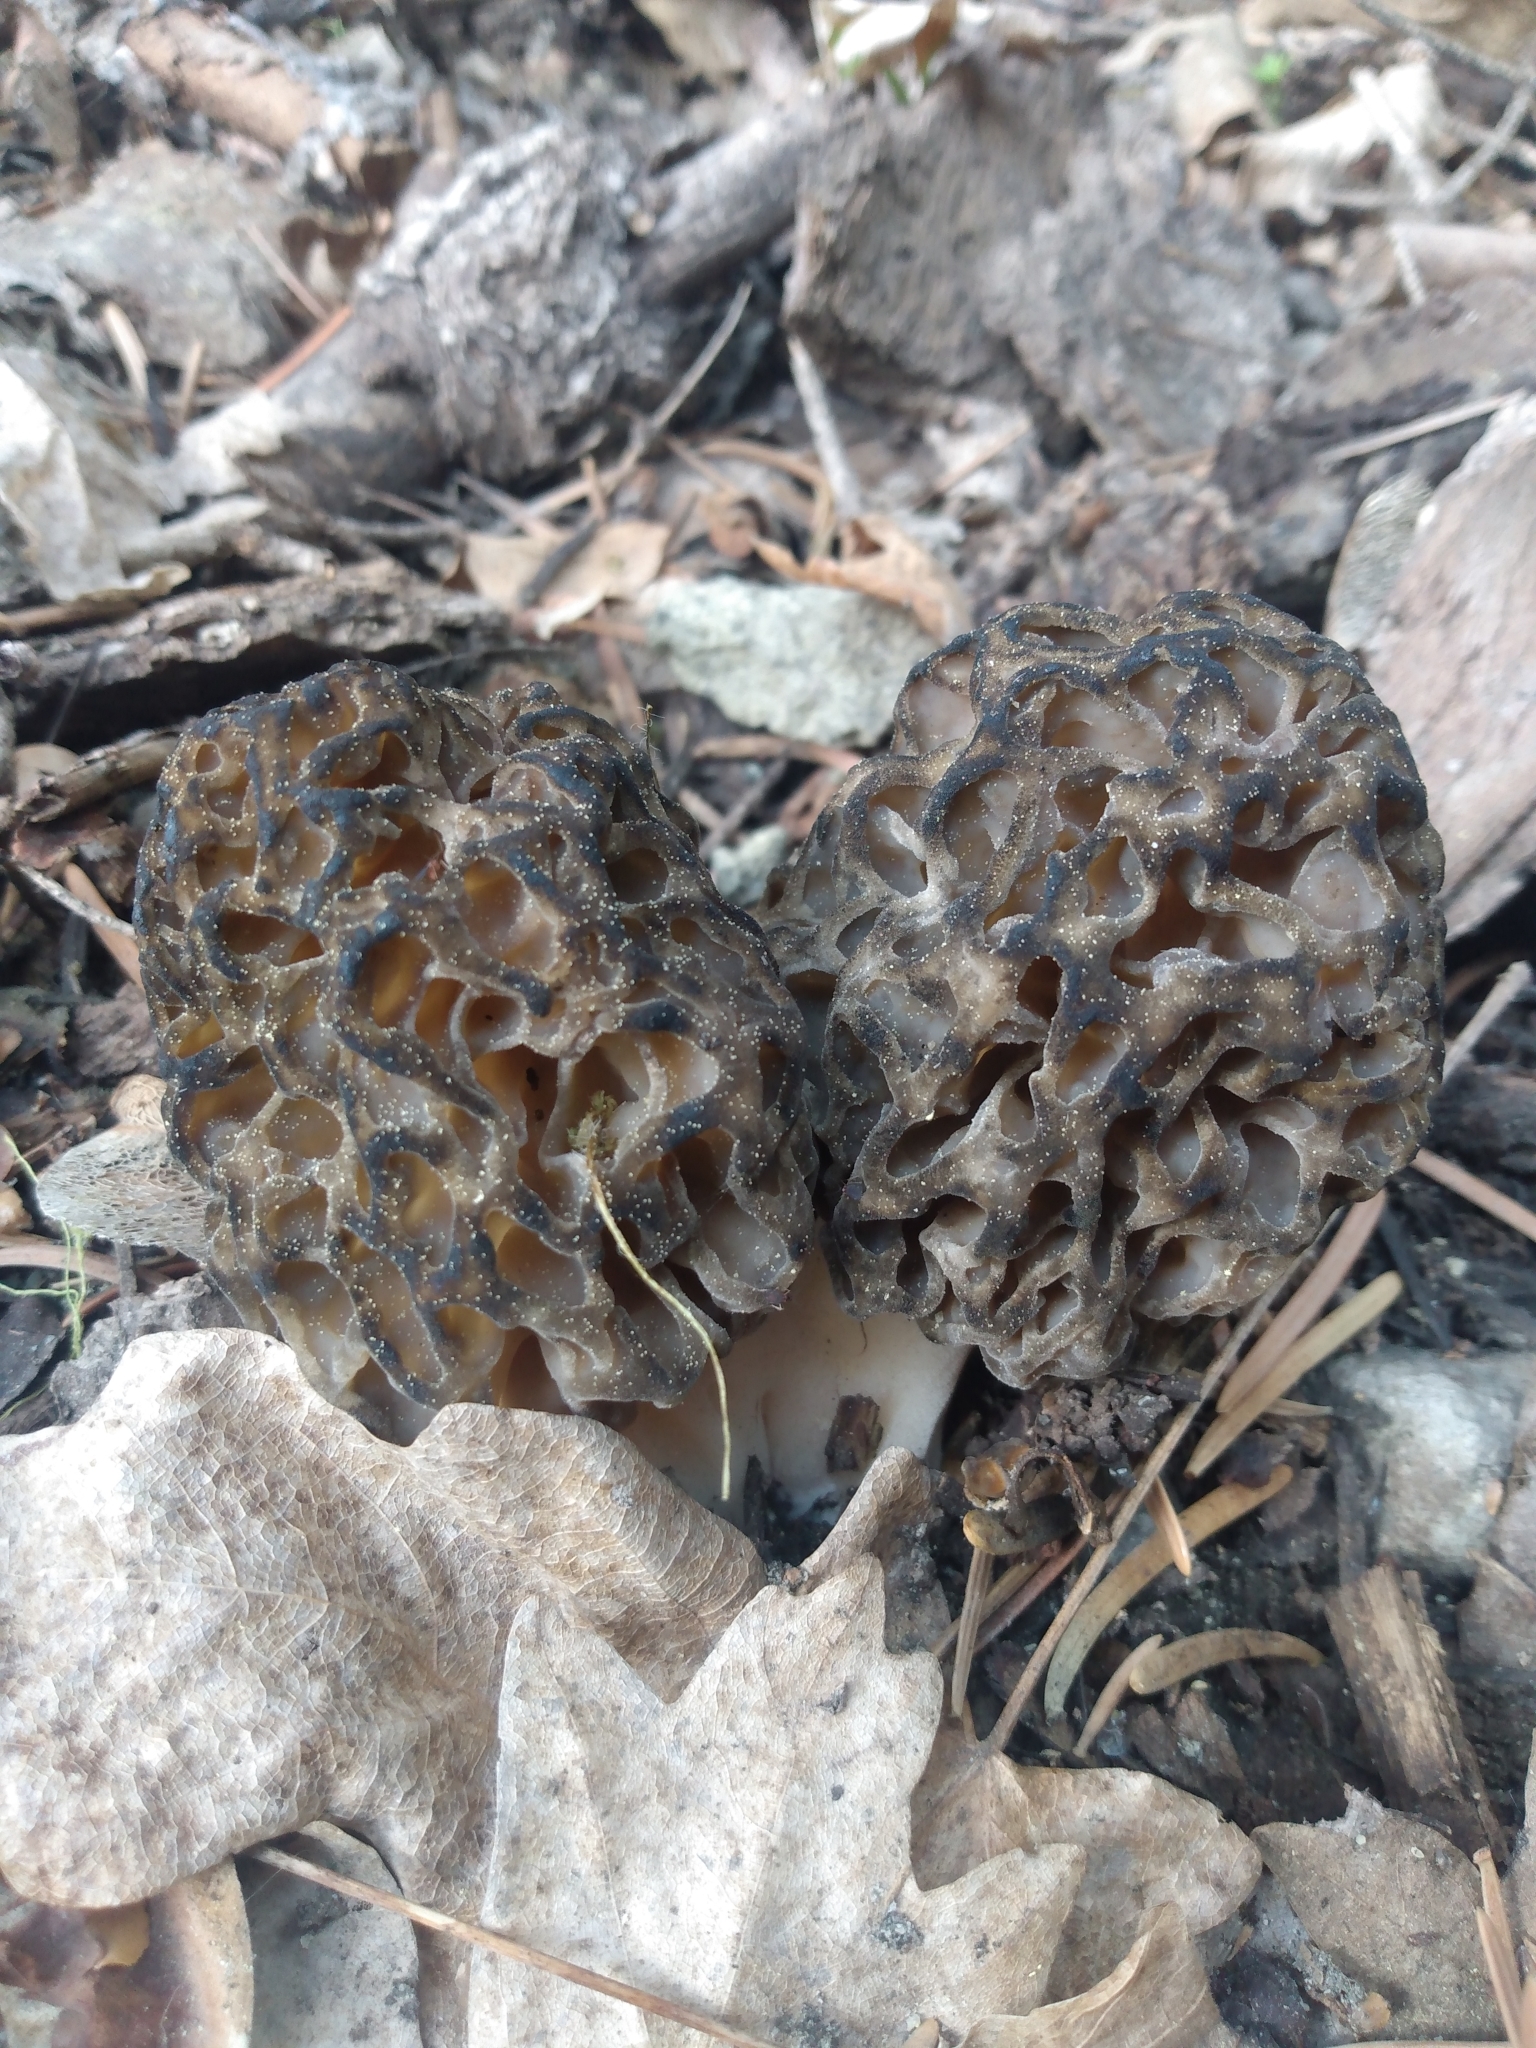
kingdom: Fungi
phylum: Ascomycota
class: Pezizomycetes
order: Pezizales
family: Morchellaceae
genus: Morchella
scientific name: Morchella snyderi
